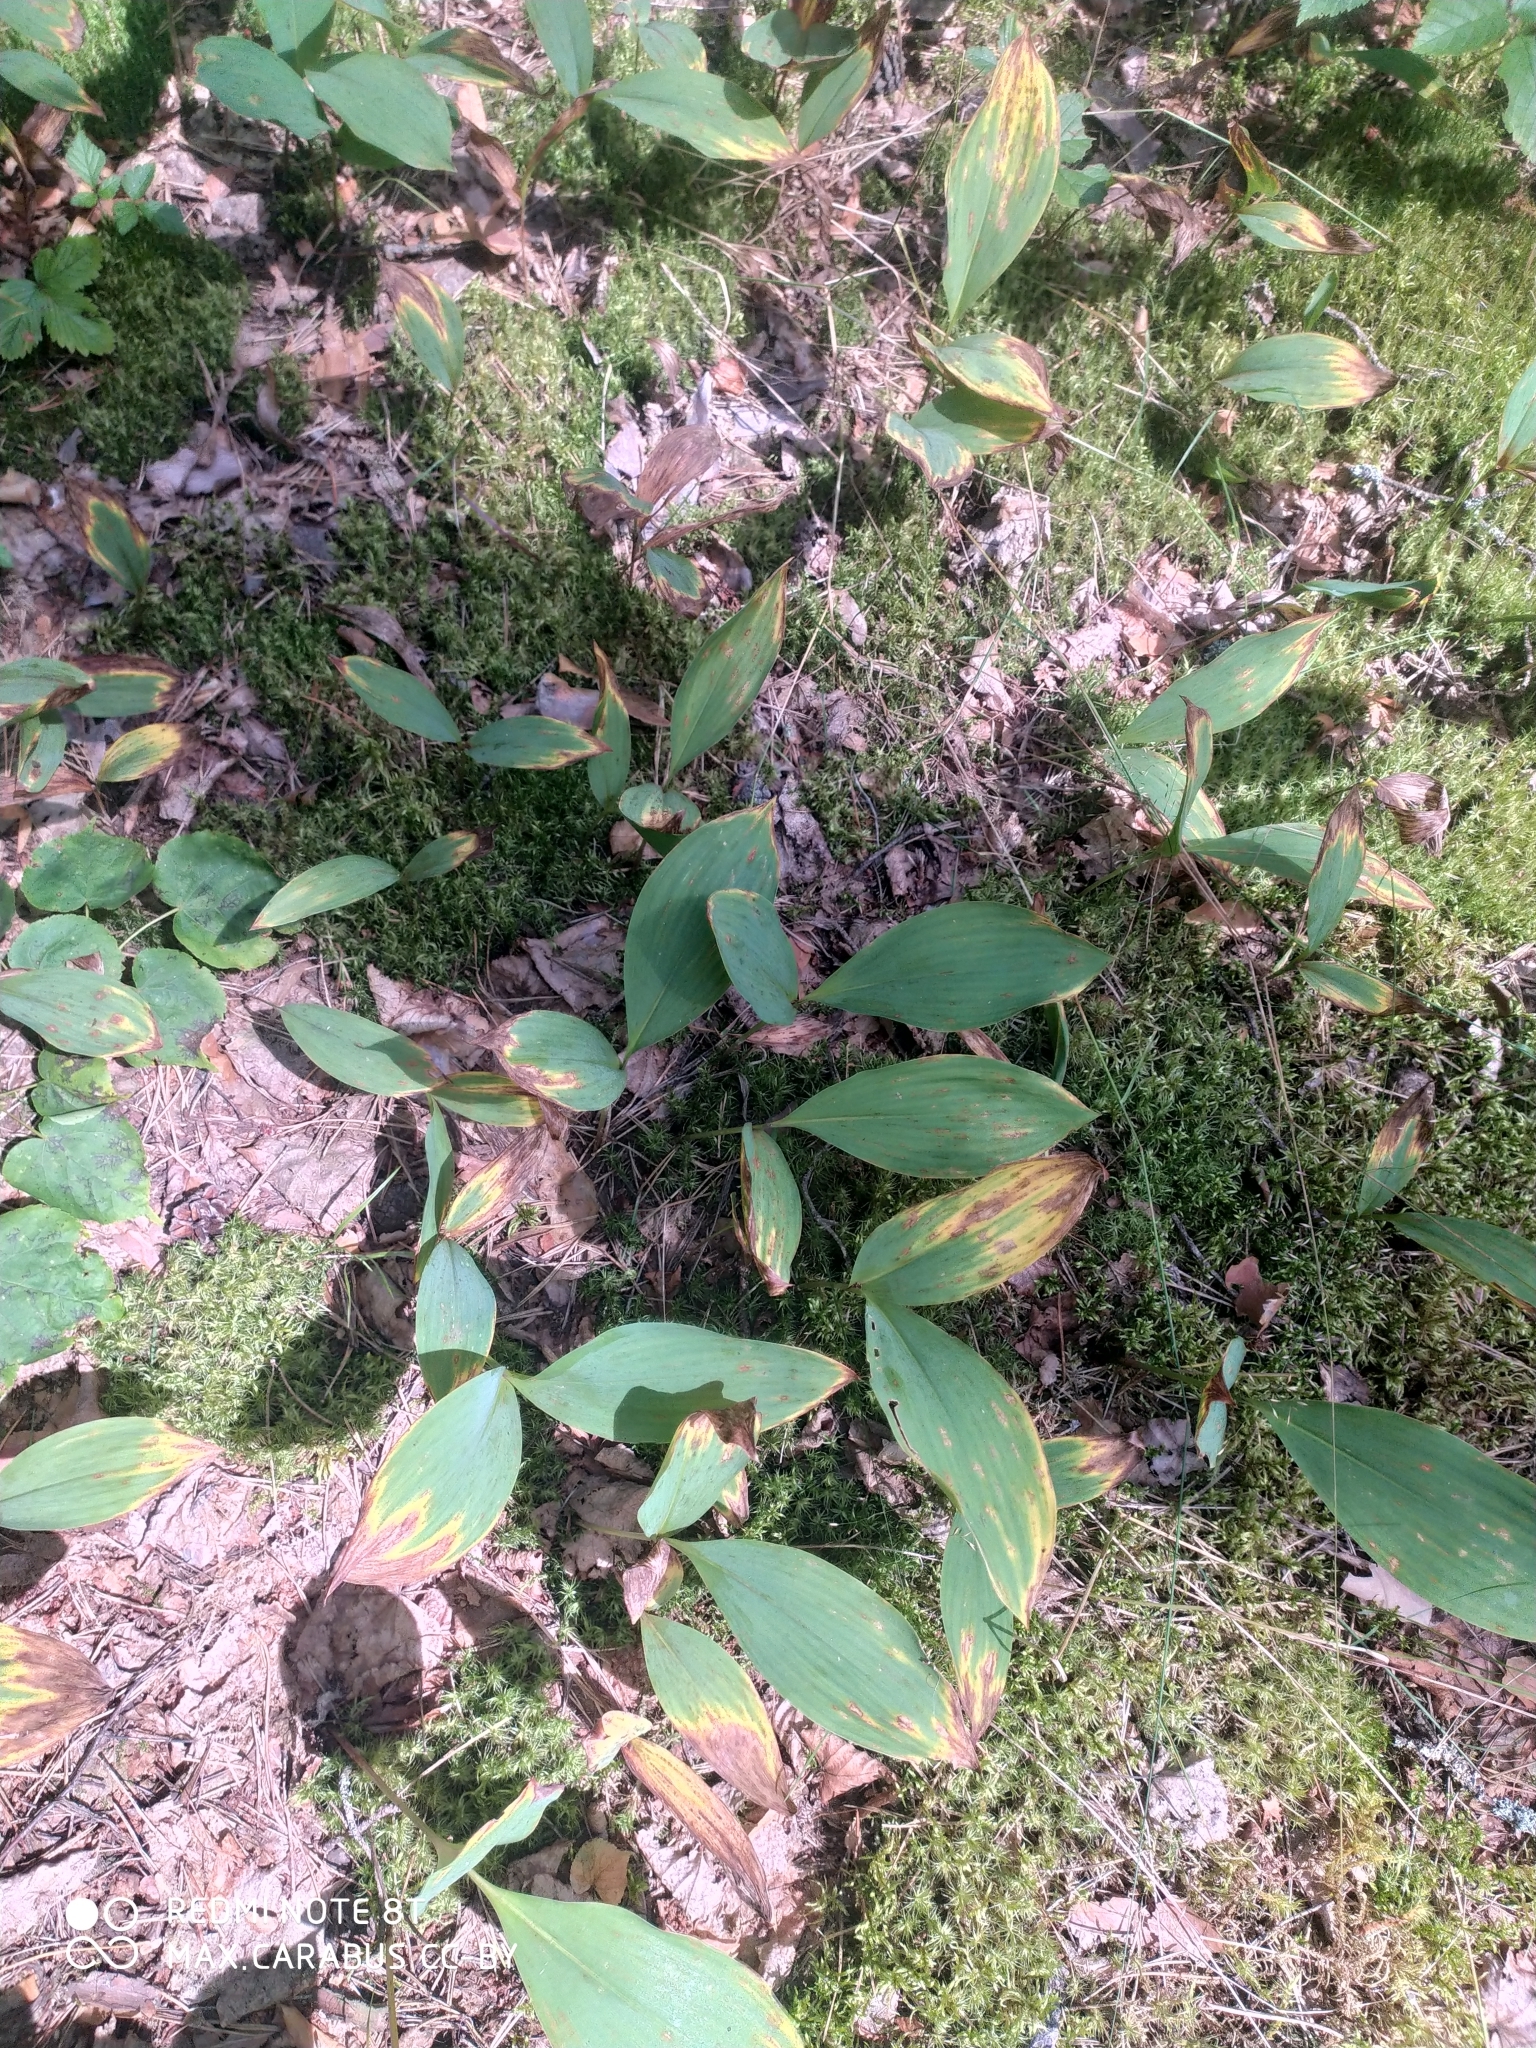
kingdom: Plantae
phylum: Tracheophyta
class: Liliopsida
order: Asparagales
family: Asparagaceae
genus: Convallaria
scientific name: Convallaria majalis
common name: Lily-of-the-valley
